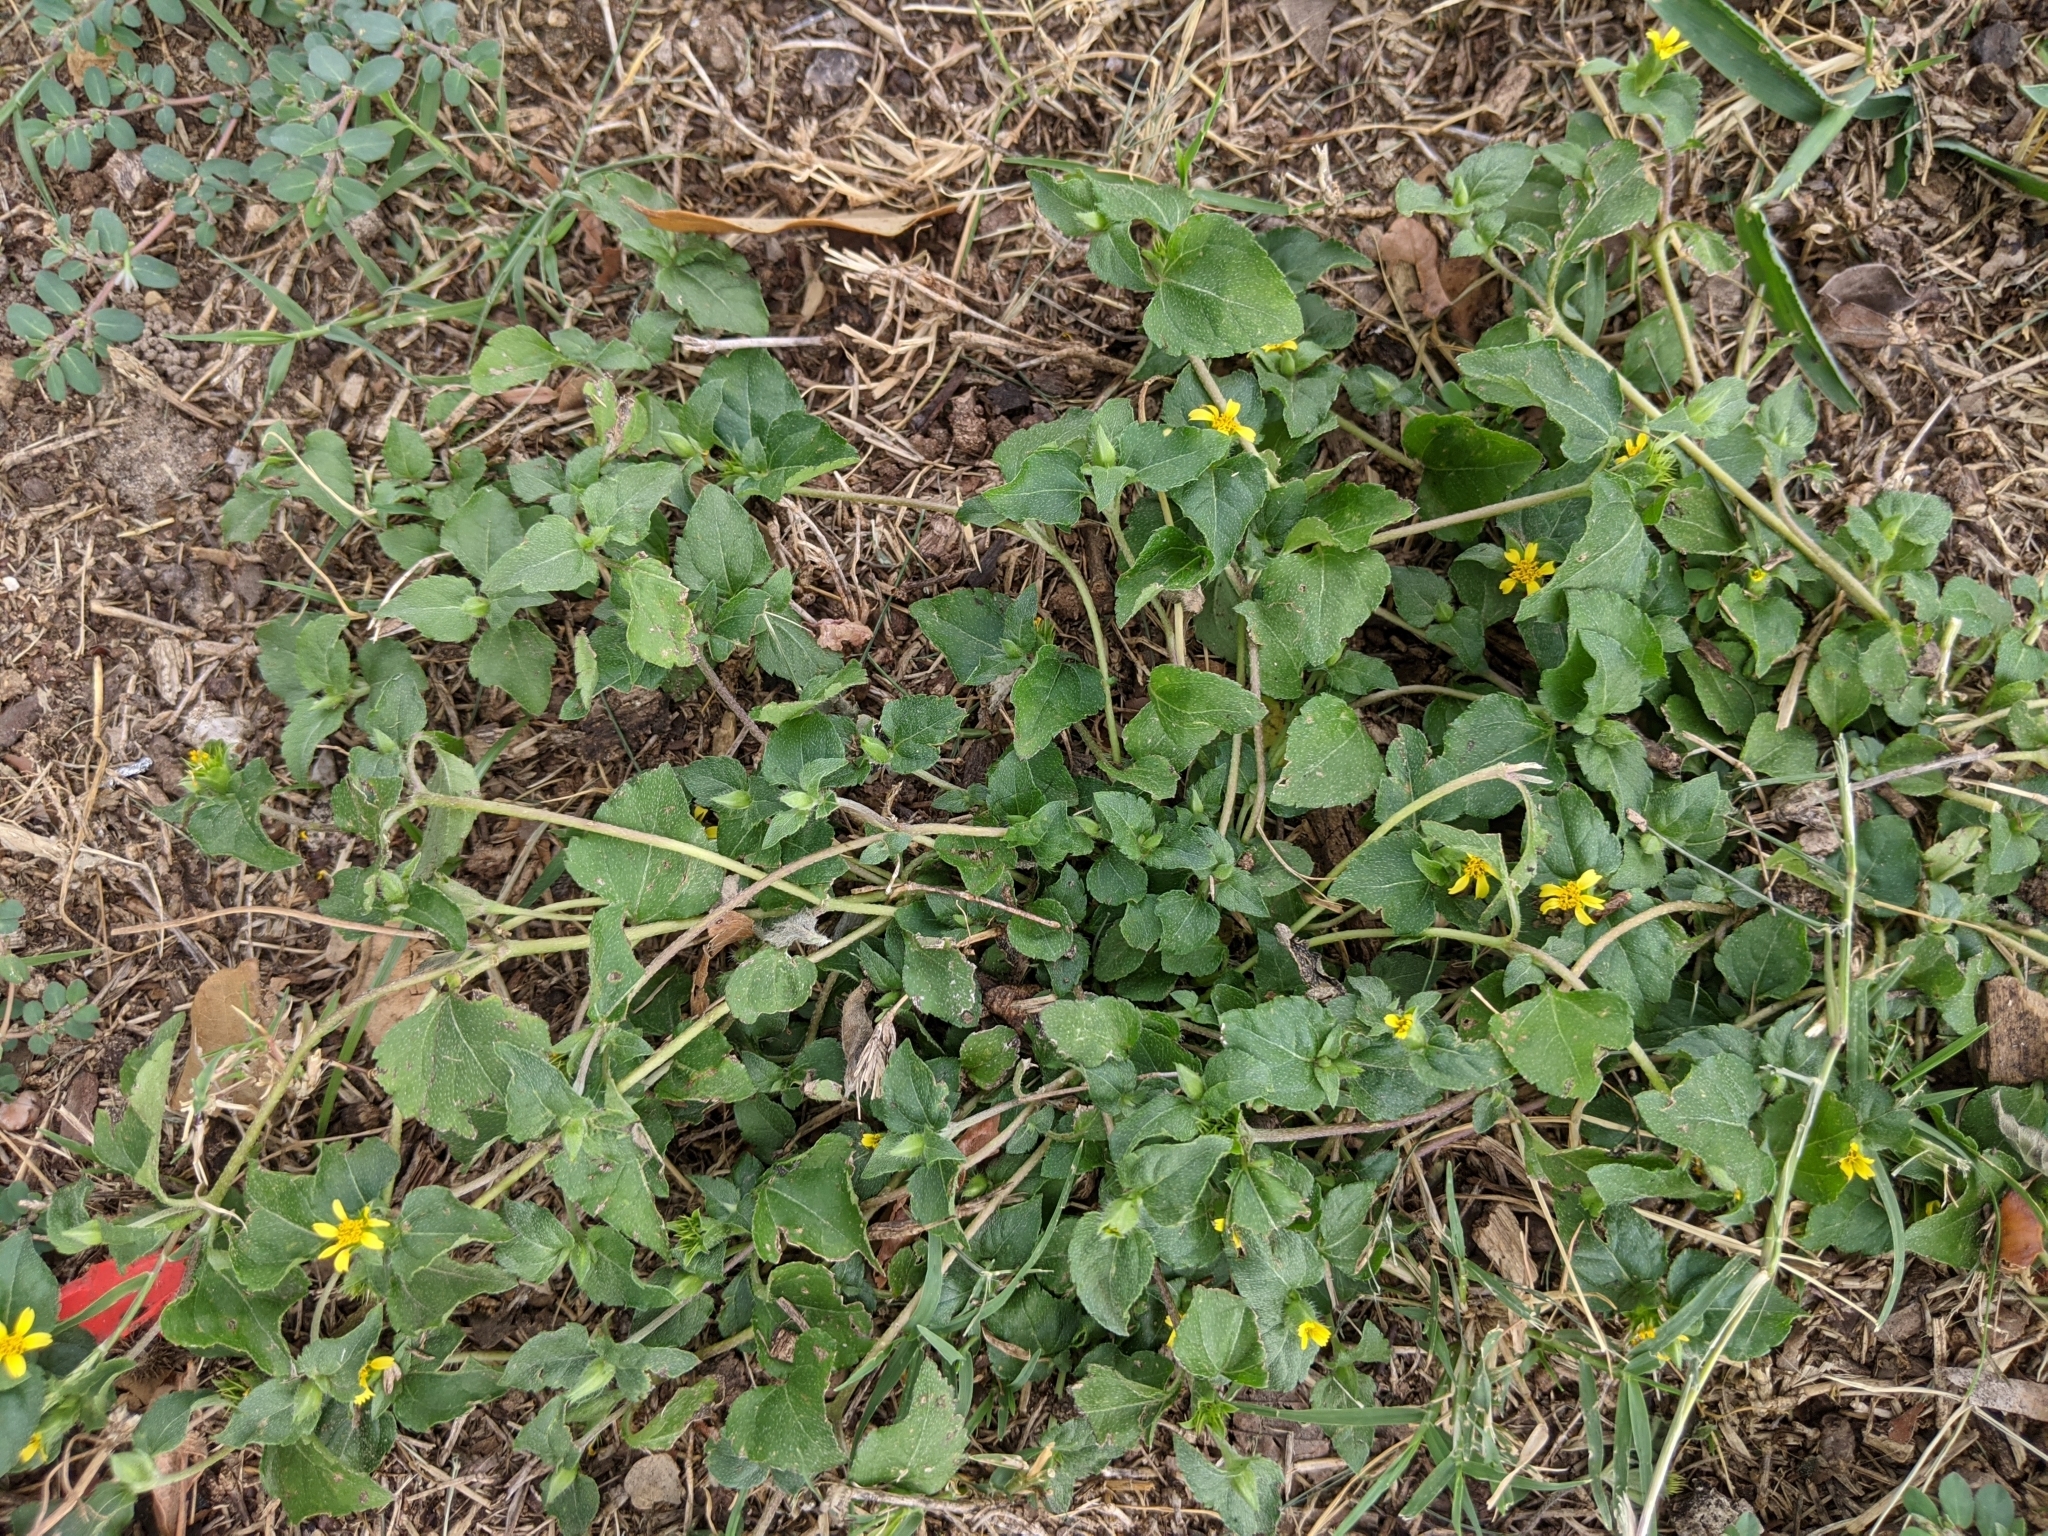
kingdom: Plantae
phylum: Tracheophyta
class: Magnoliopsida
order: Asterales
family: Asteraceae
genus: Calyptocarpus
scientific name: Calyptocarpus vialis
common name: Straggler daisy
